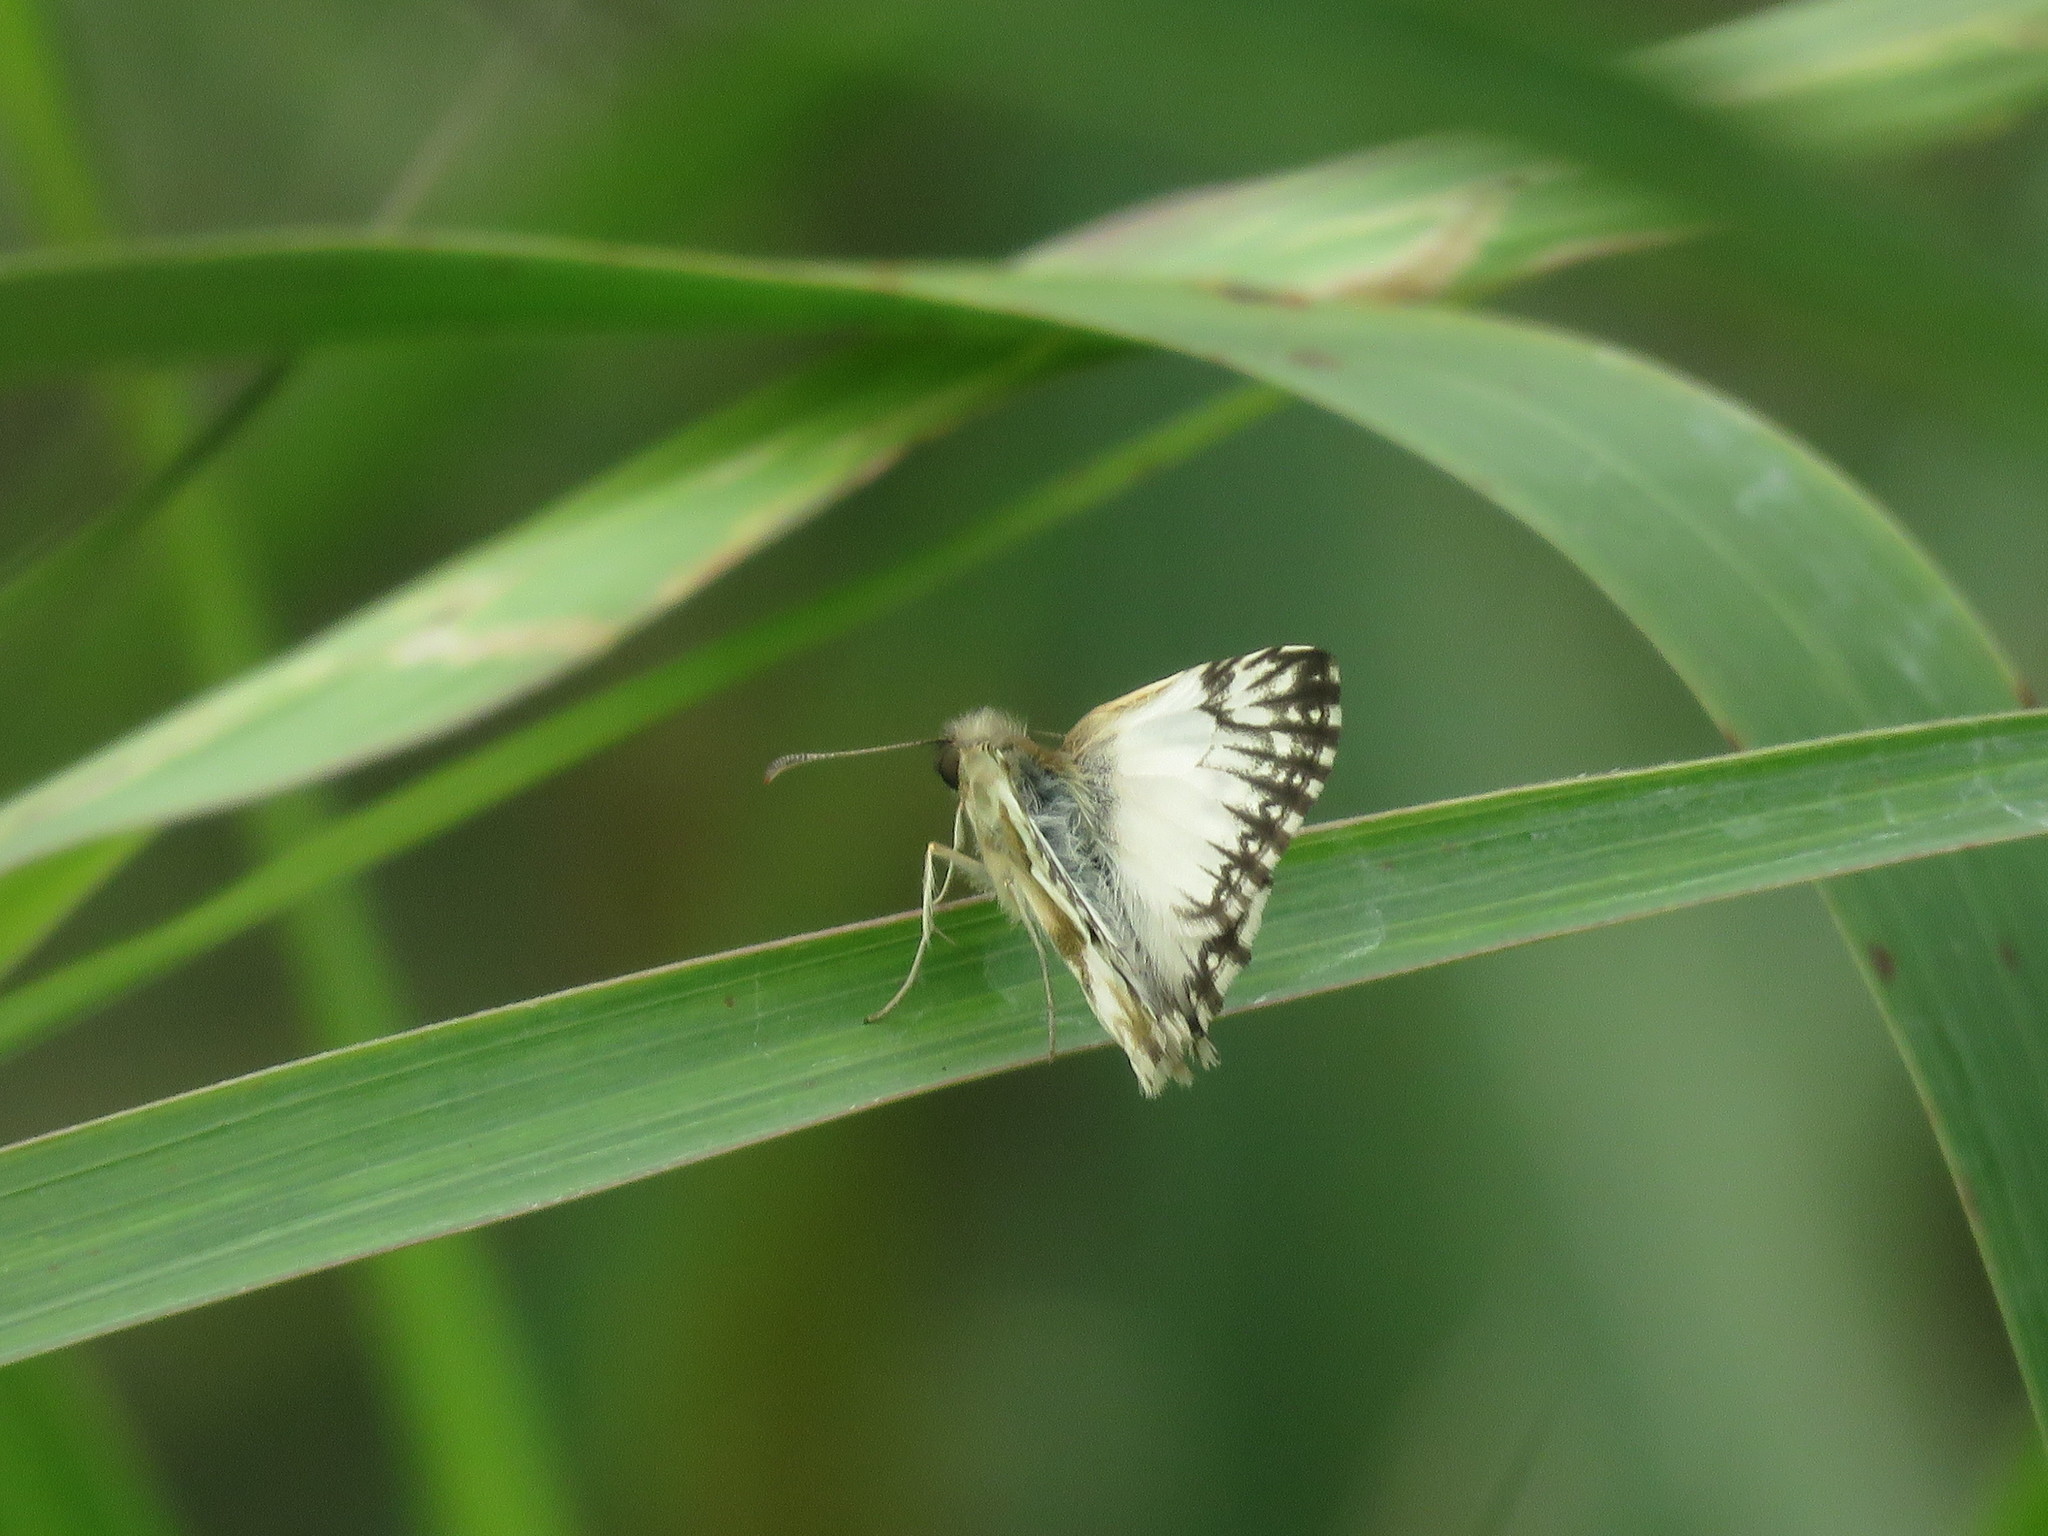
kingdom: Animalia
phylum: Arthropoda
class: Insecta
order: Lepidoptera
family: Hesperiidae
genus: Heliopetes
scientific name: Heliopetes omrina
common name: Stained white-skipper
